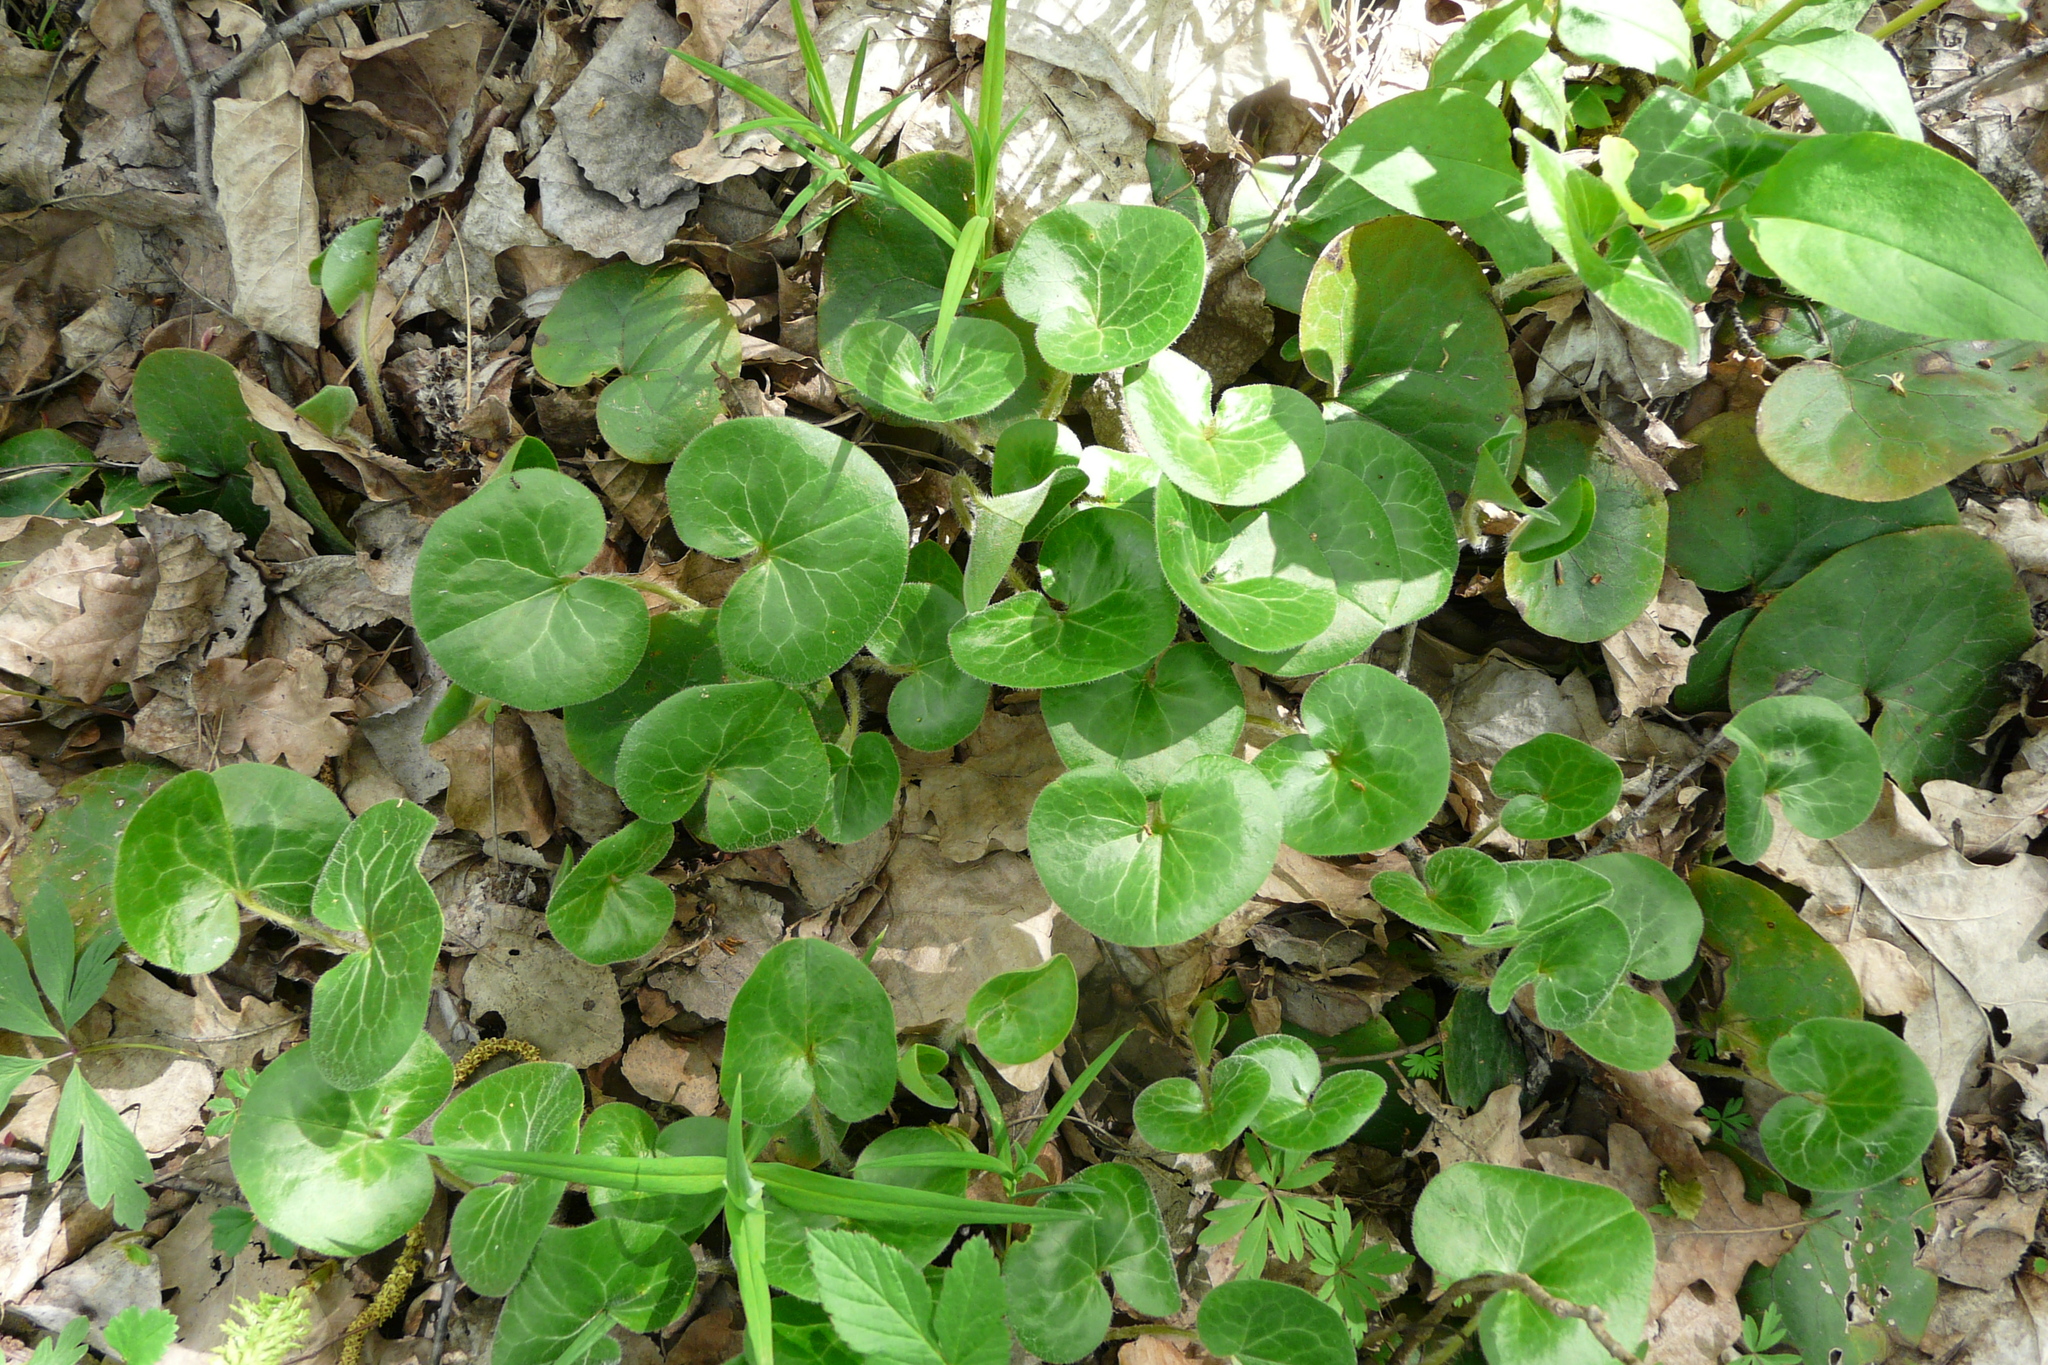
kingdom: Plantae
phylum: Tracheophyta
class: Magnoliopsida
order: Piperales
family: Aristolochiaceae
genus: Asarum
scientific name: Asarum europaeum
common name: Asarabacca
